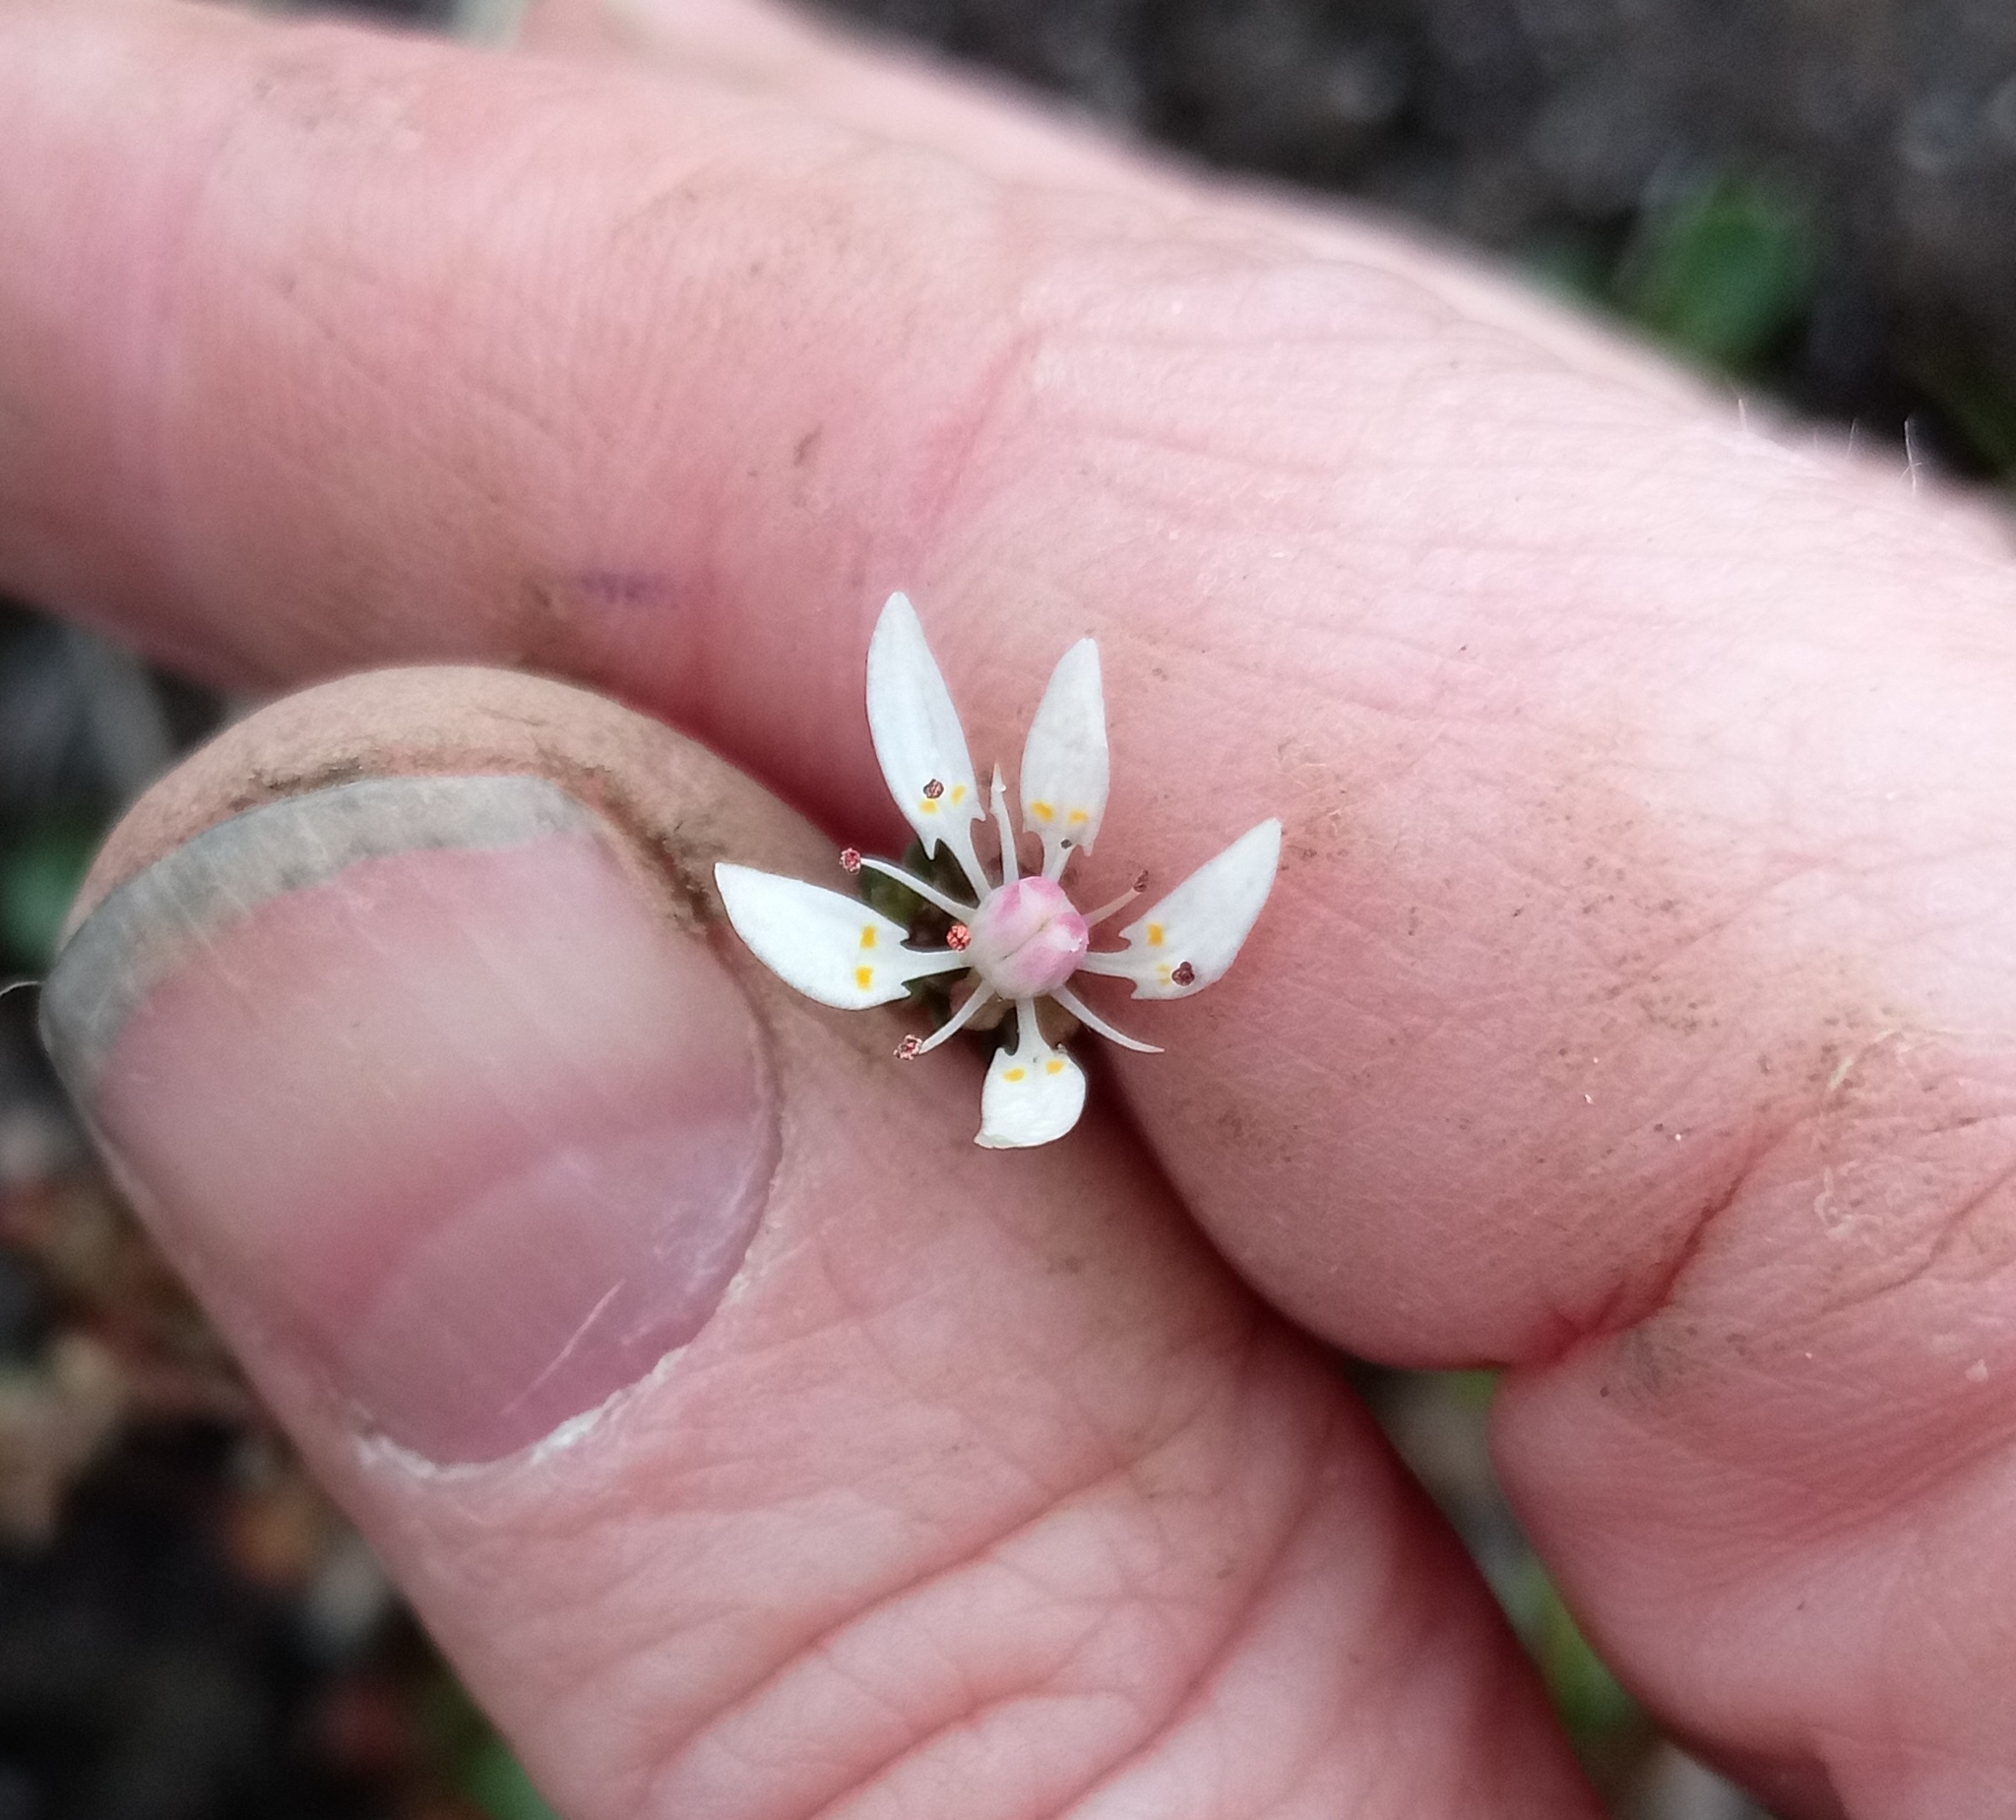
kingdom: Plantae
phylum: Tracheophyta
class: Magnoliopsida
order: Saxifragales
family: Saxifragaceae
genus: Micranthes
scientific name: Micranthes foliolosa
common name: Leafystem saxifrage
